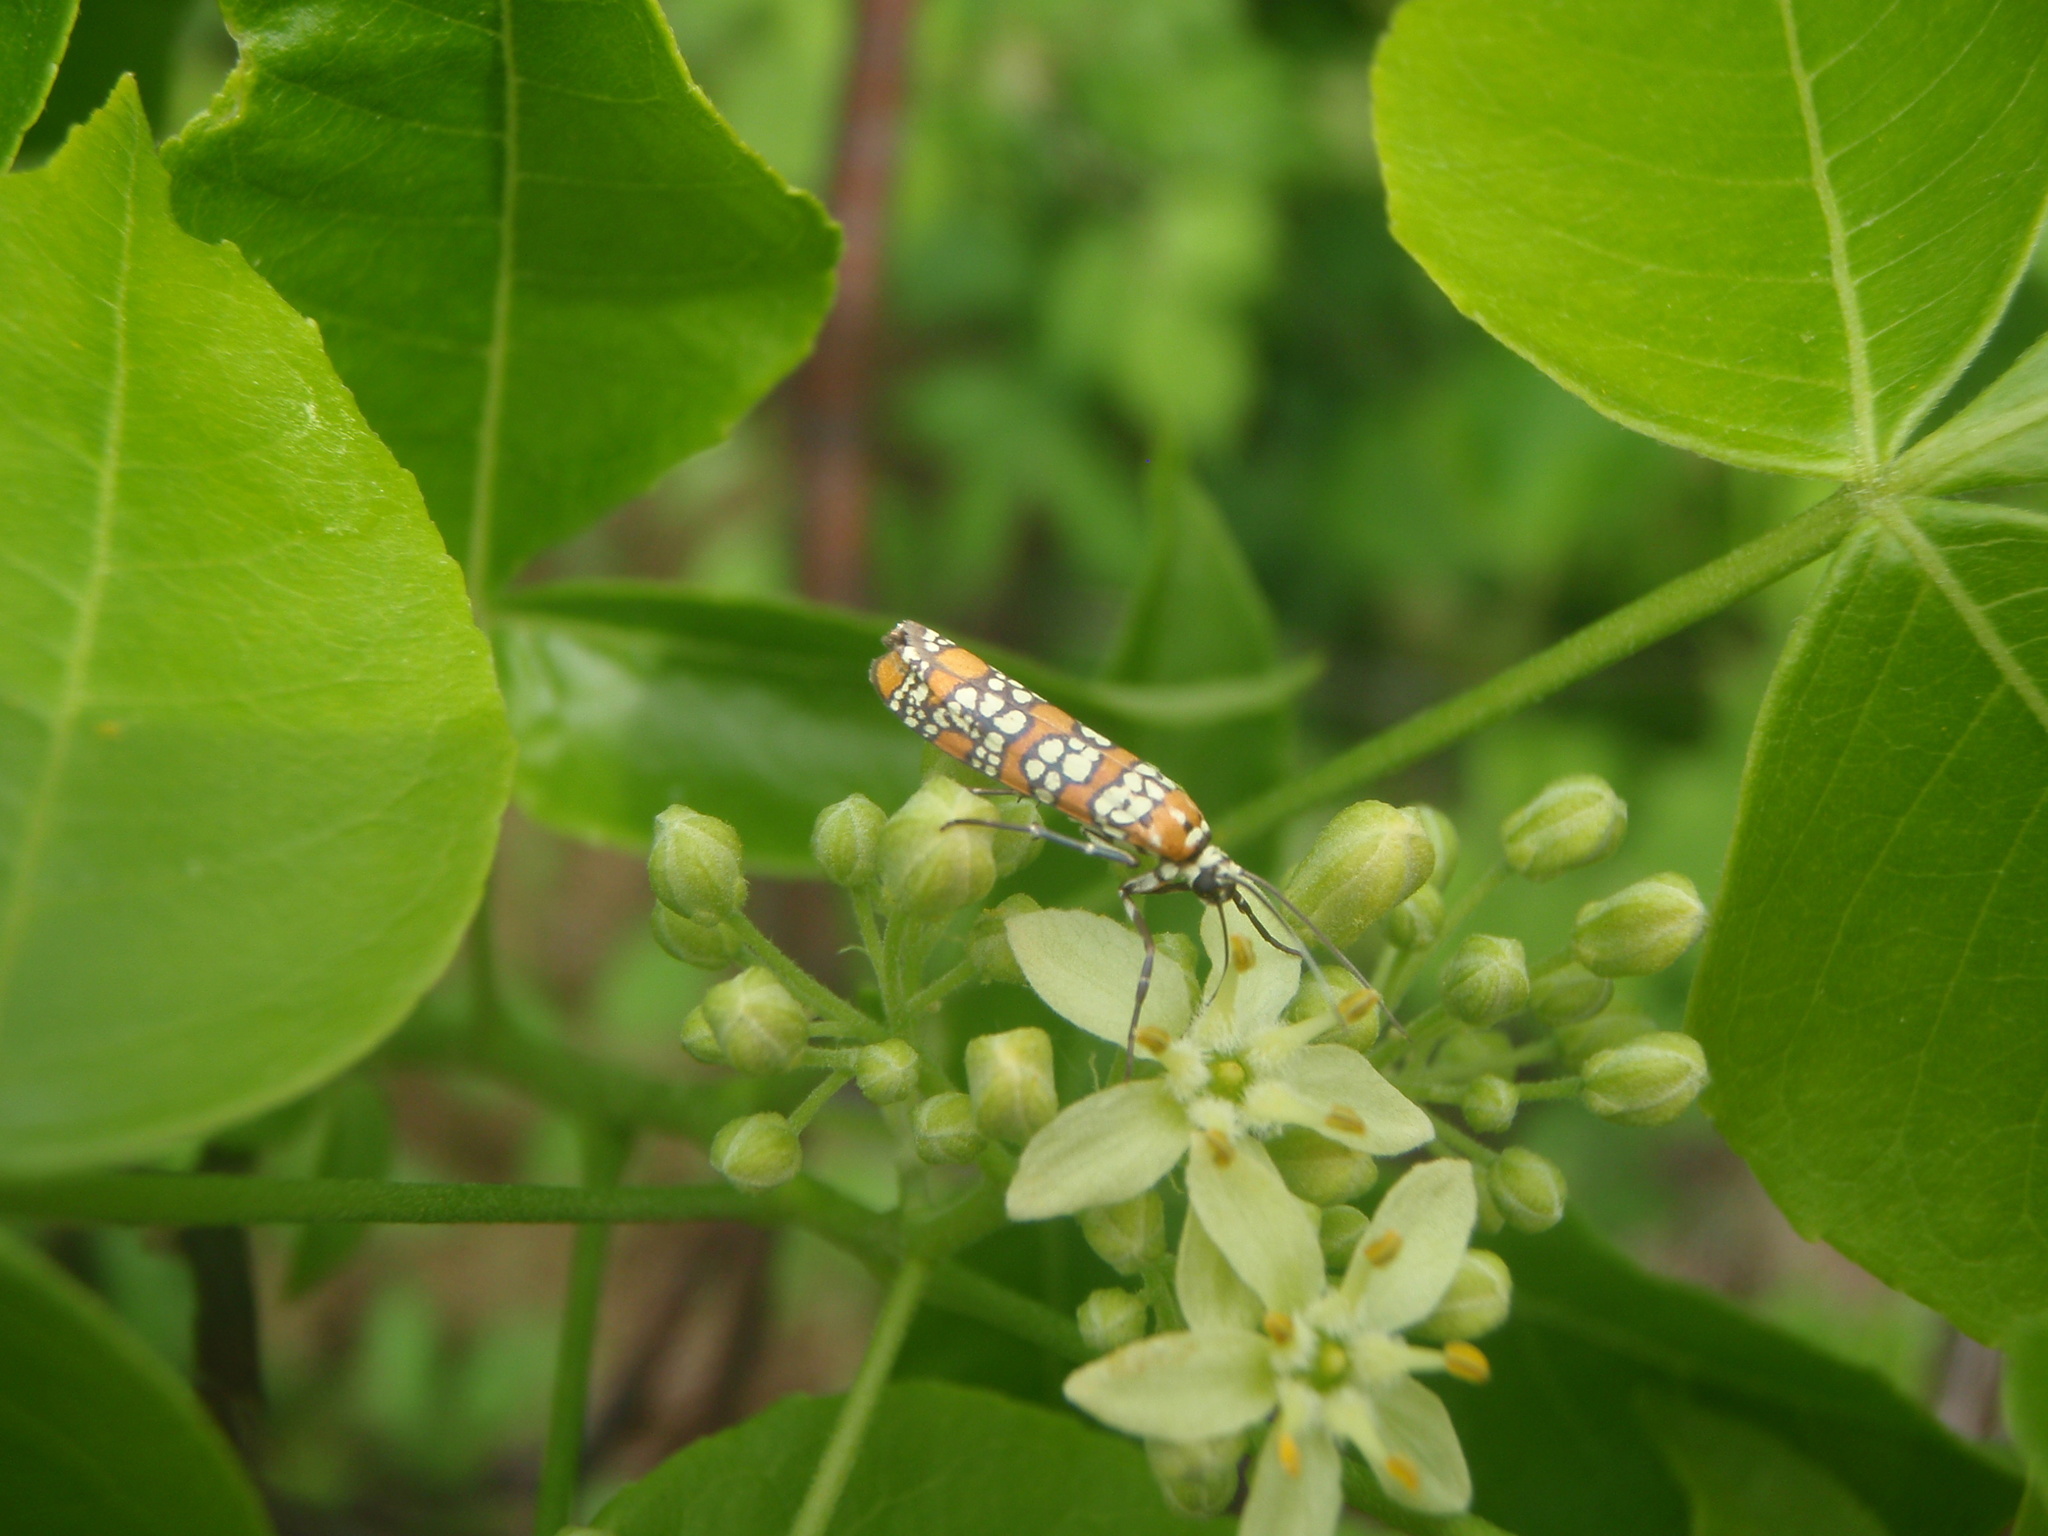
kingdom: Animalia
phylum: Arthropoda
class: Insecta
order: Lepidoptera
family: Attevidae
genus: Atteva
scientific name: Atteva punctella
